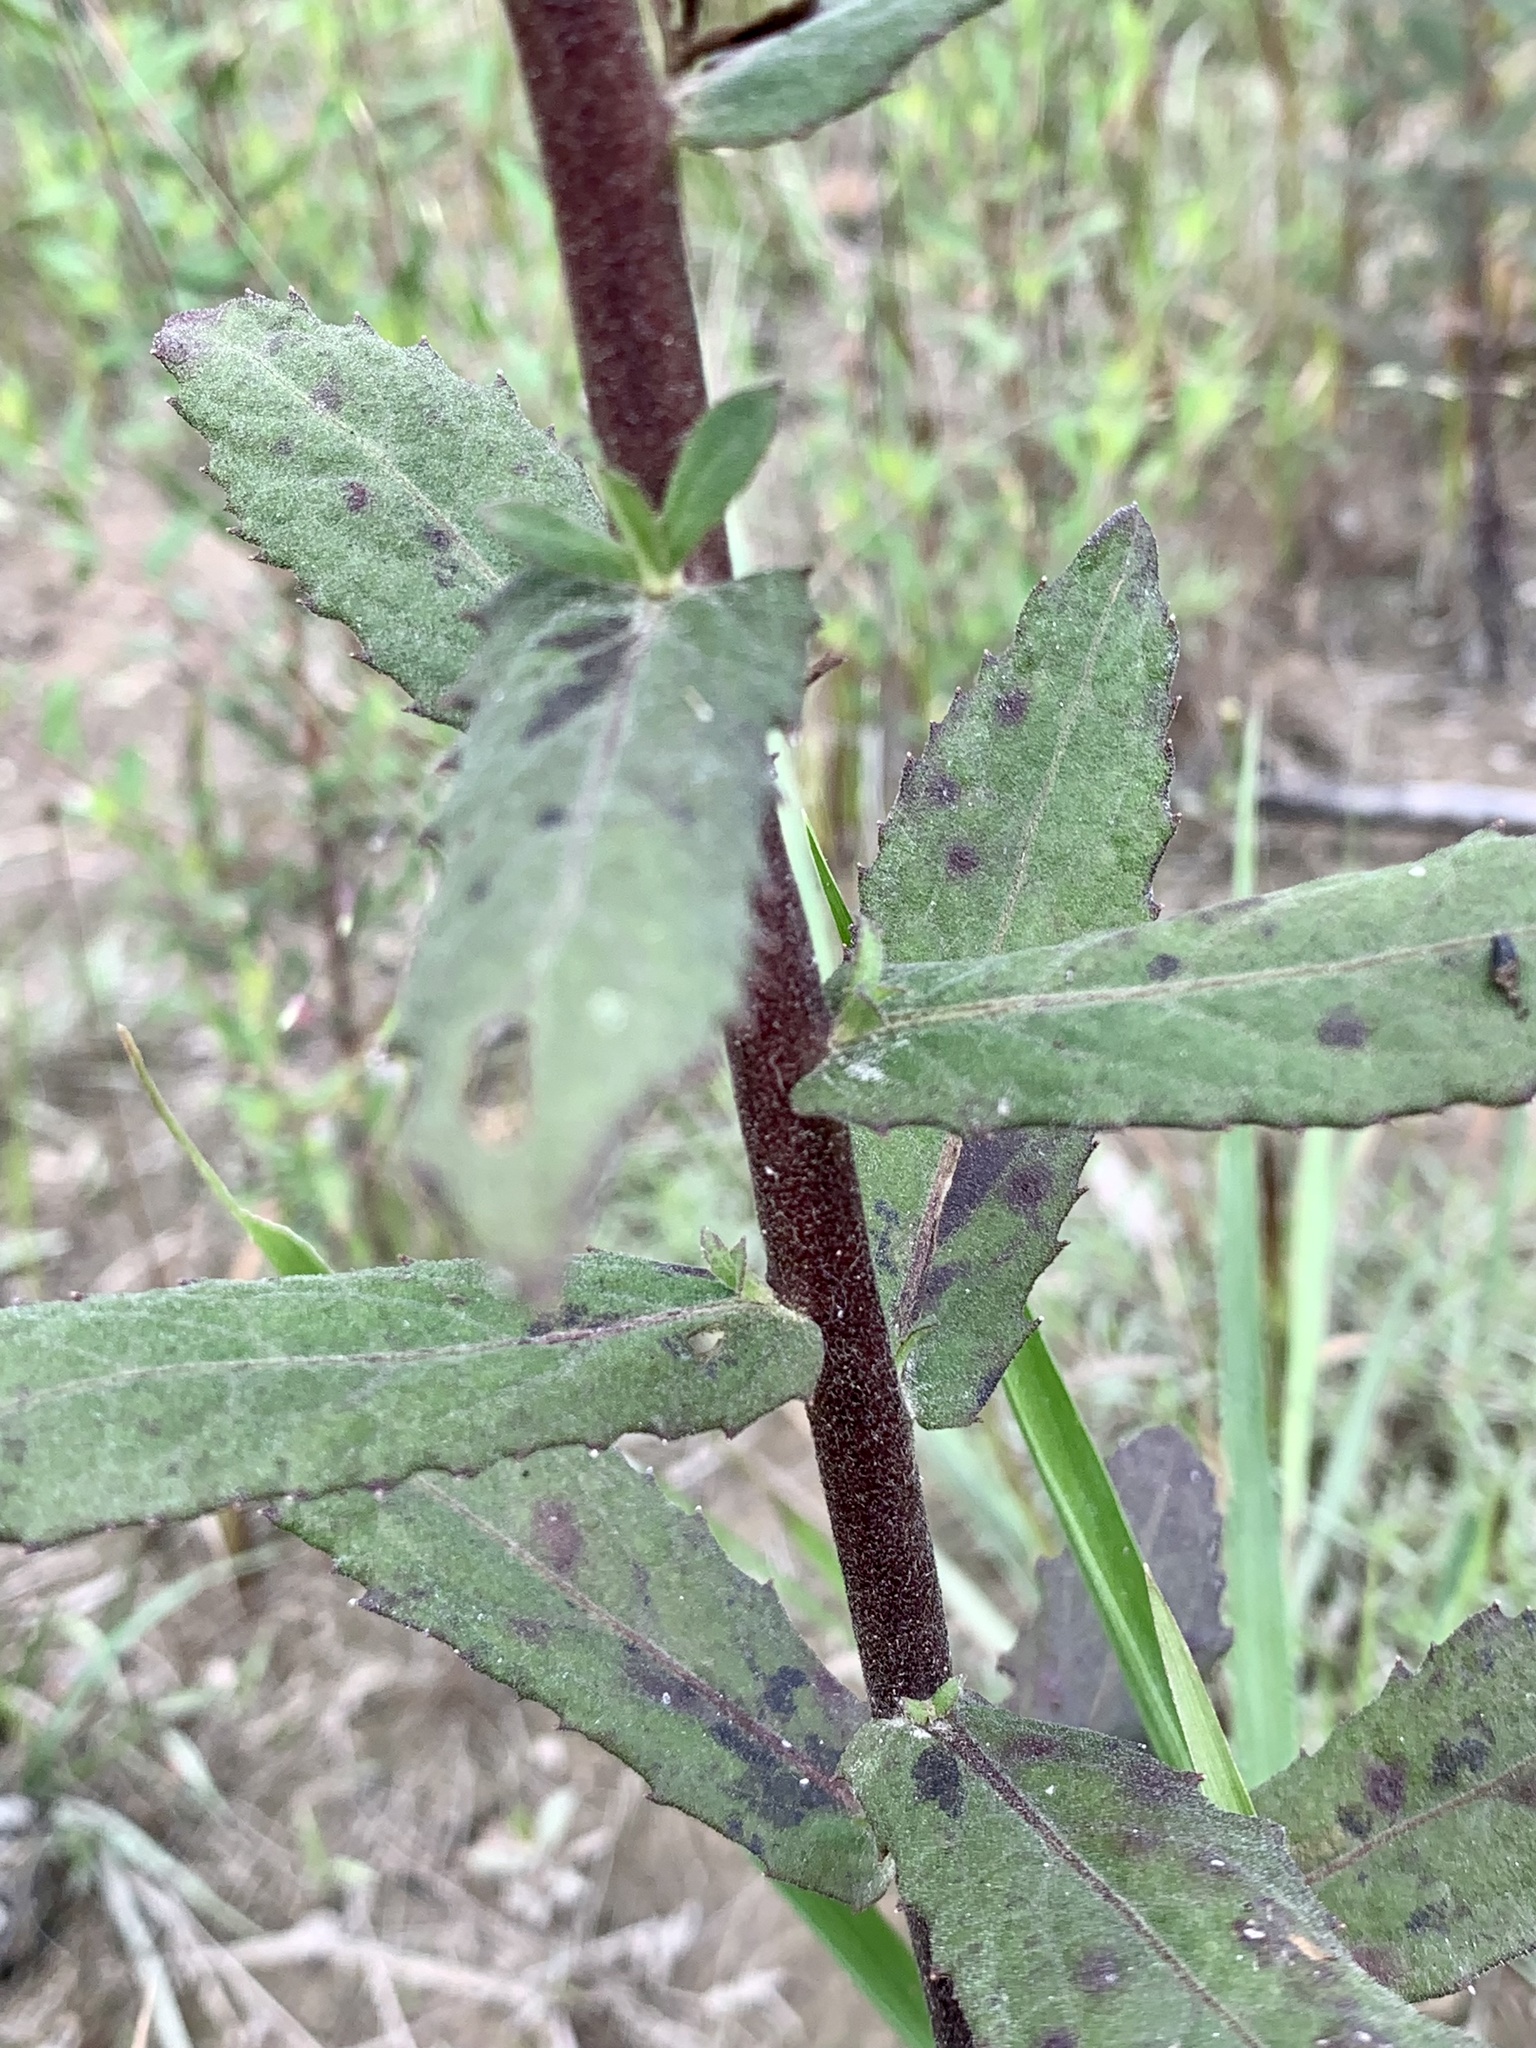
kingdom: Plantae
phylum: Tracheophyta
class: Magnoliopsida
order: Asterales
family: Asteraceae
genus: Pluchea
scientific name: Pluchea foetida
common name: Stinking camphorweed
